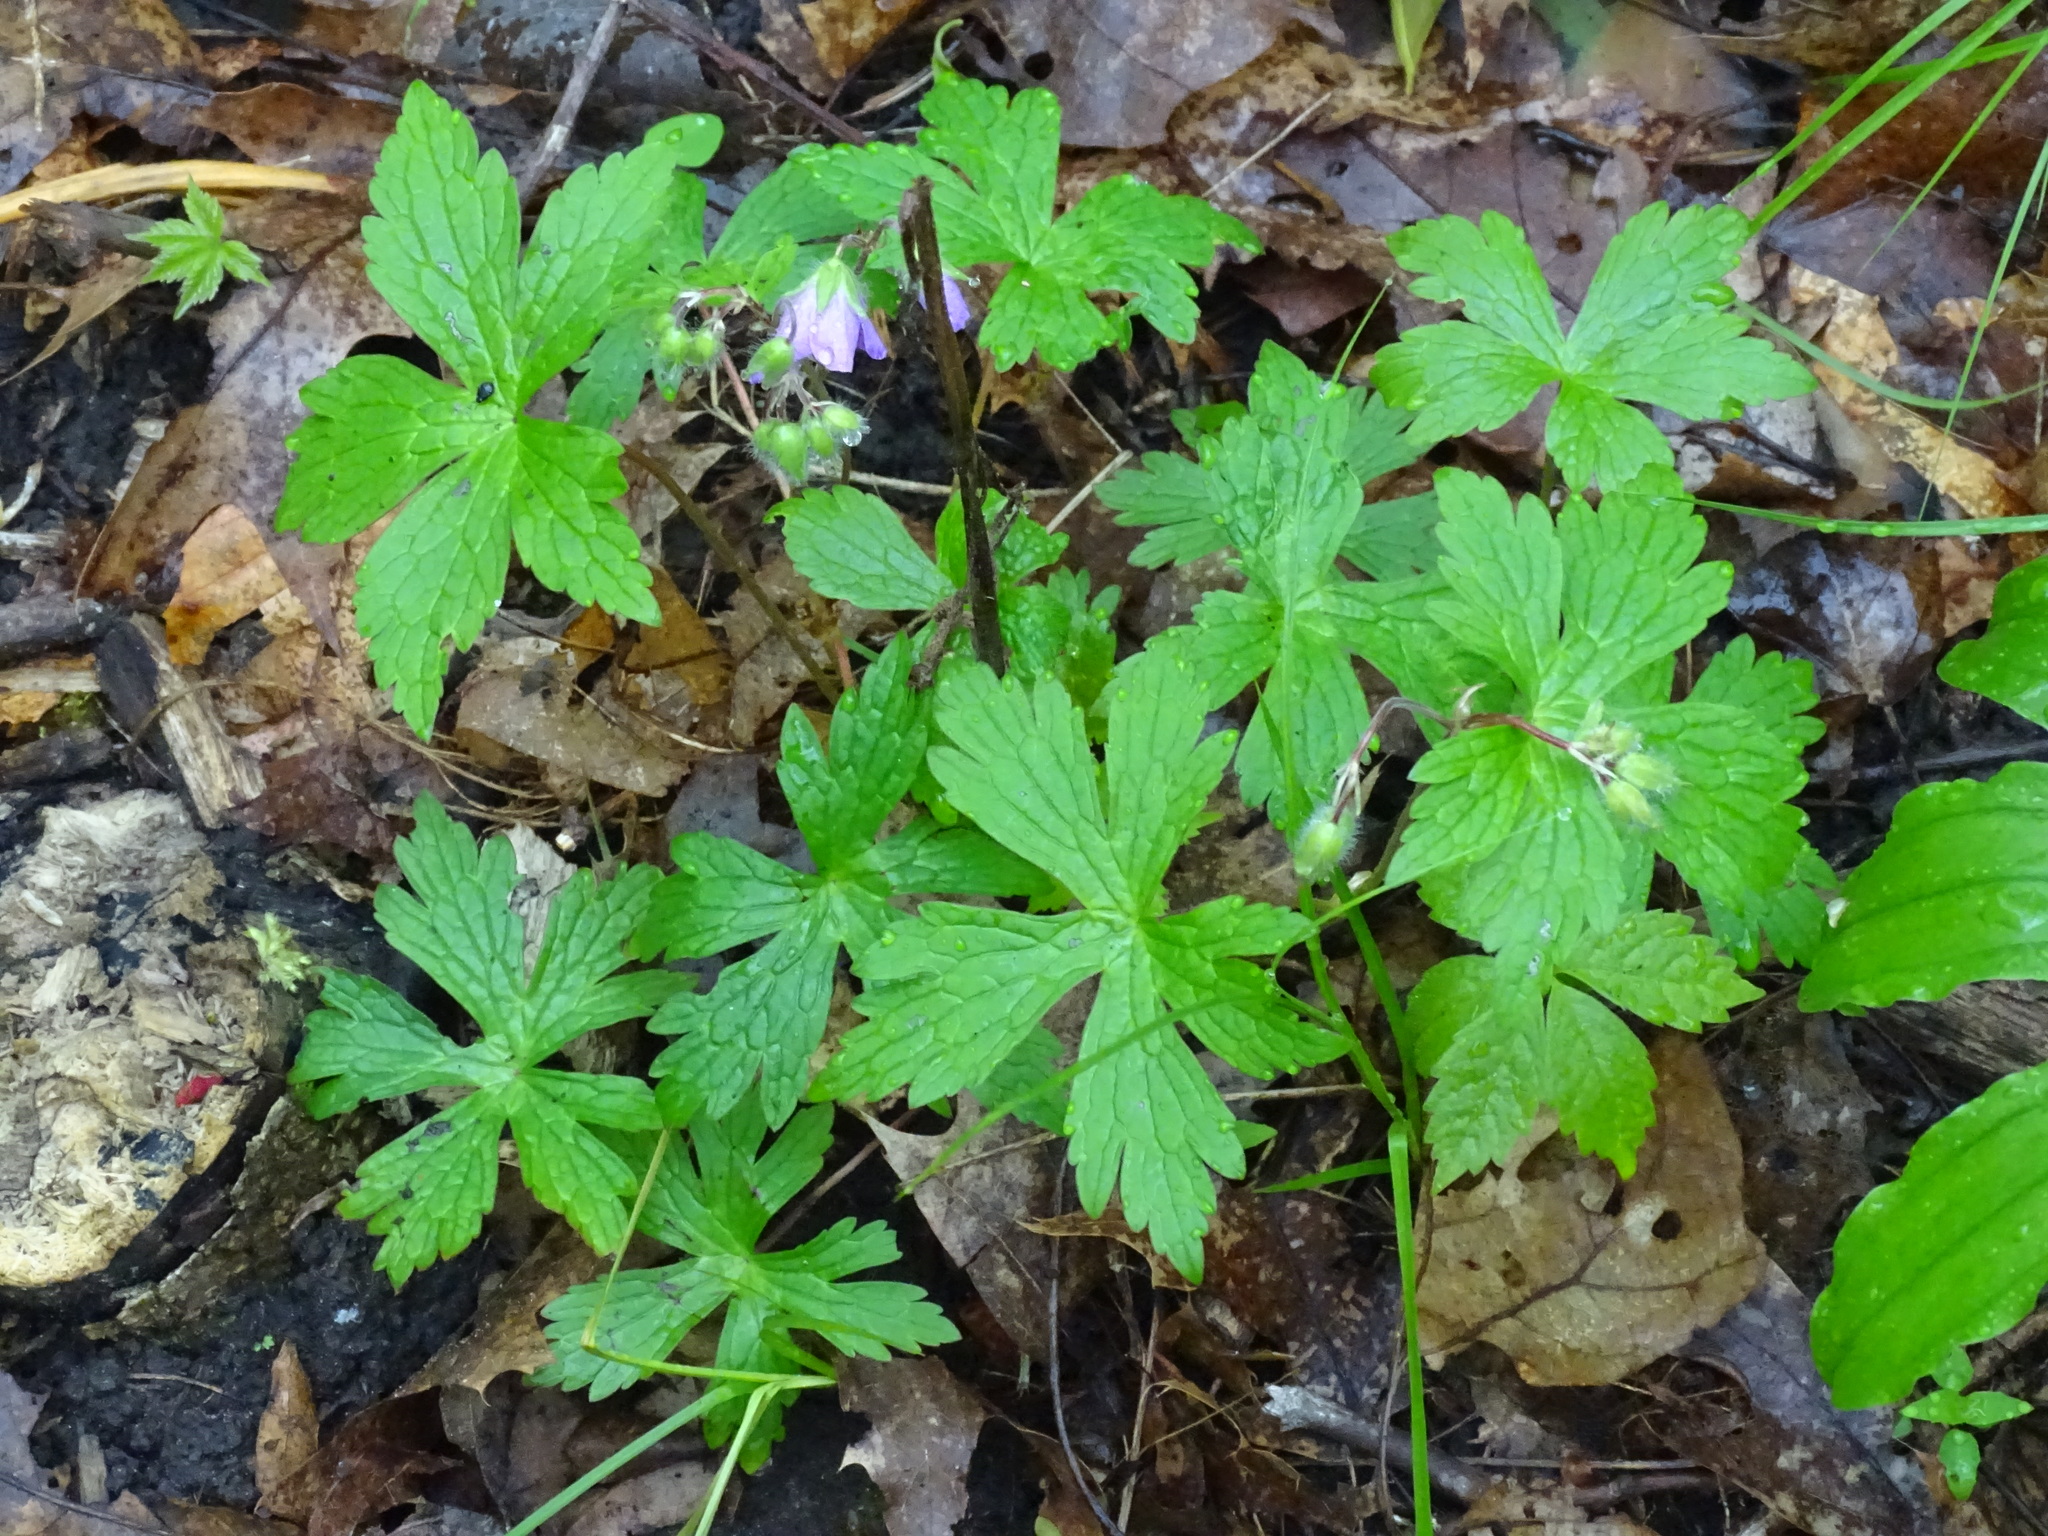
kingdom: Plantae
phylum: Tracheophyta
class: Magnoliopsida
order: Geraniales
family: Geraniaceae
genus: Geranium
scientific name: Geranium maculatum
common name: Spotted geranium
